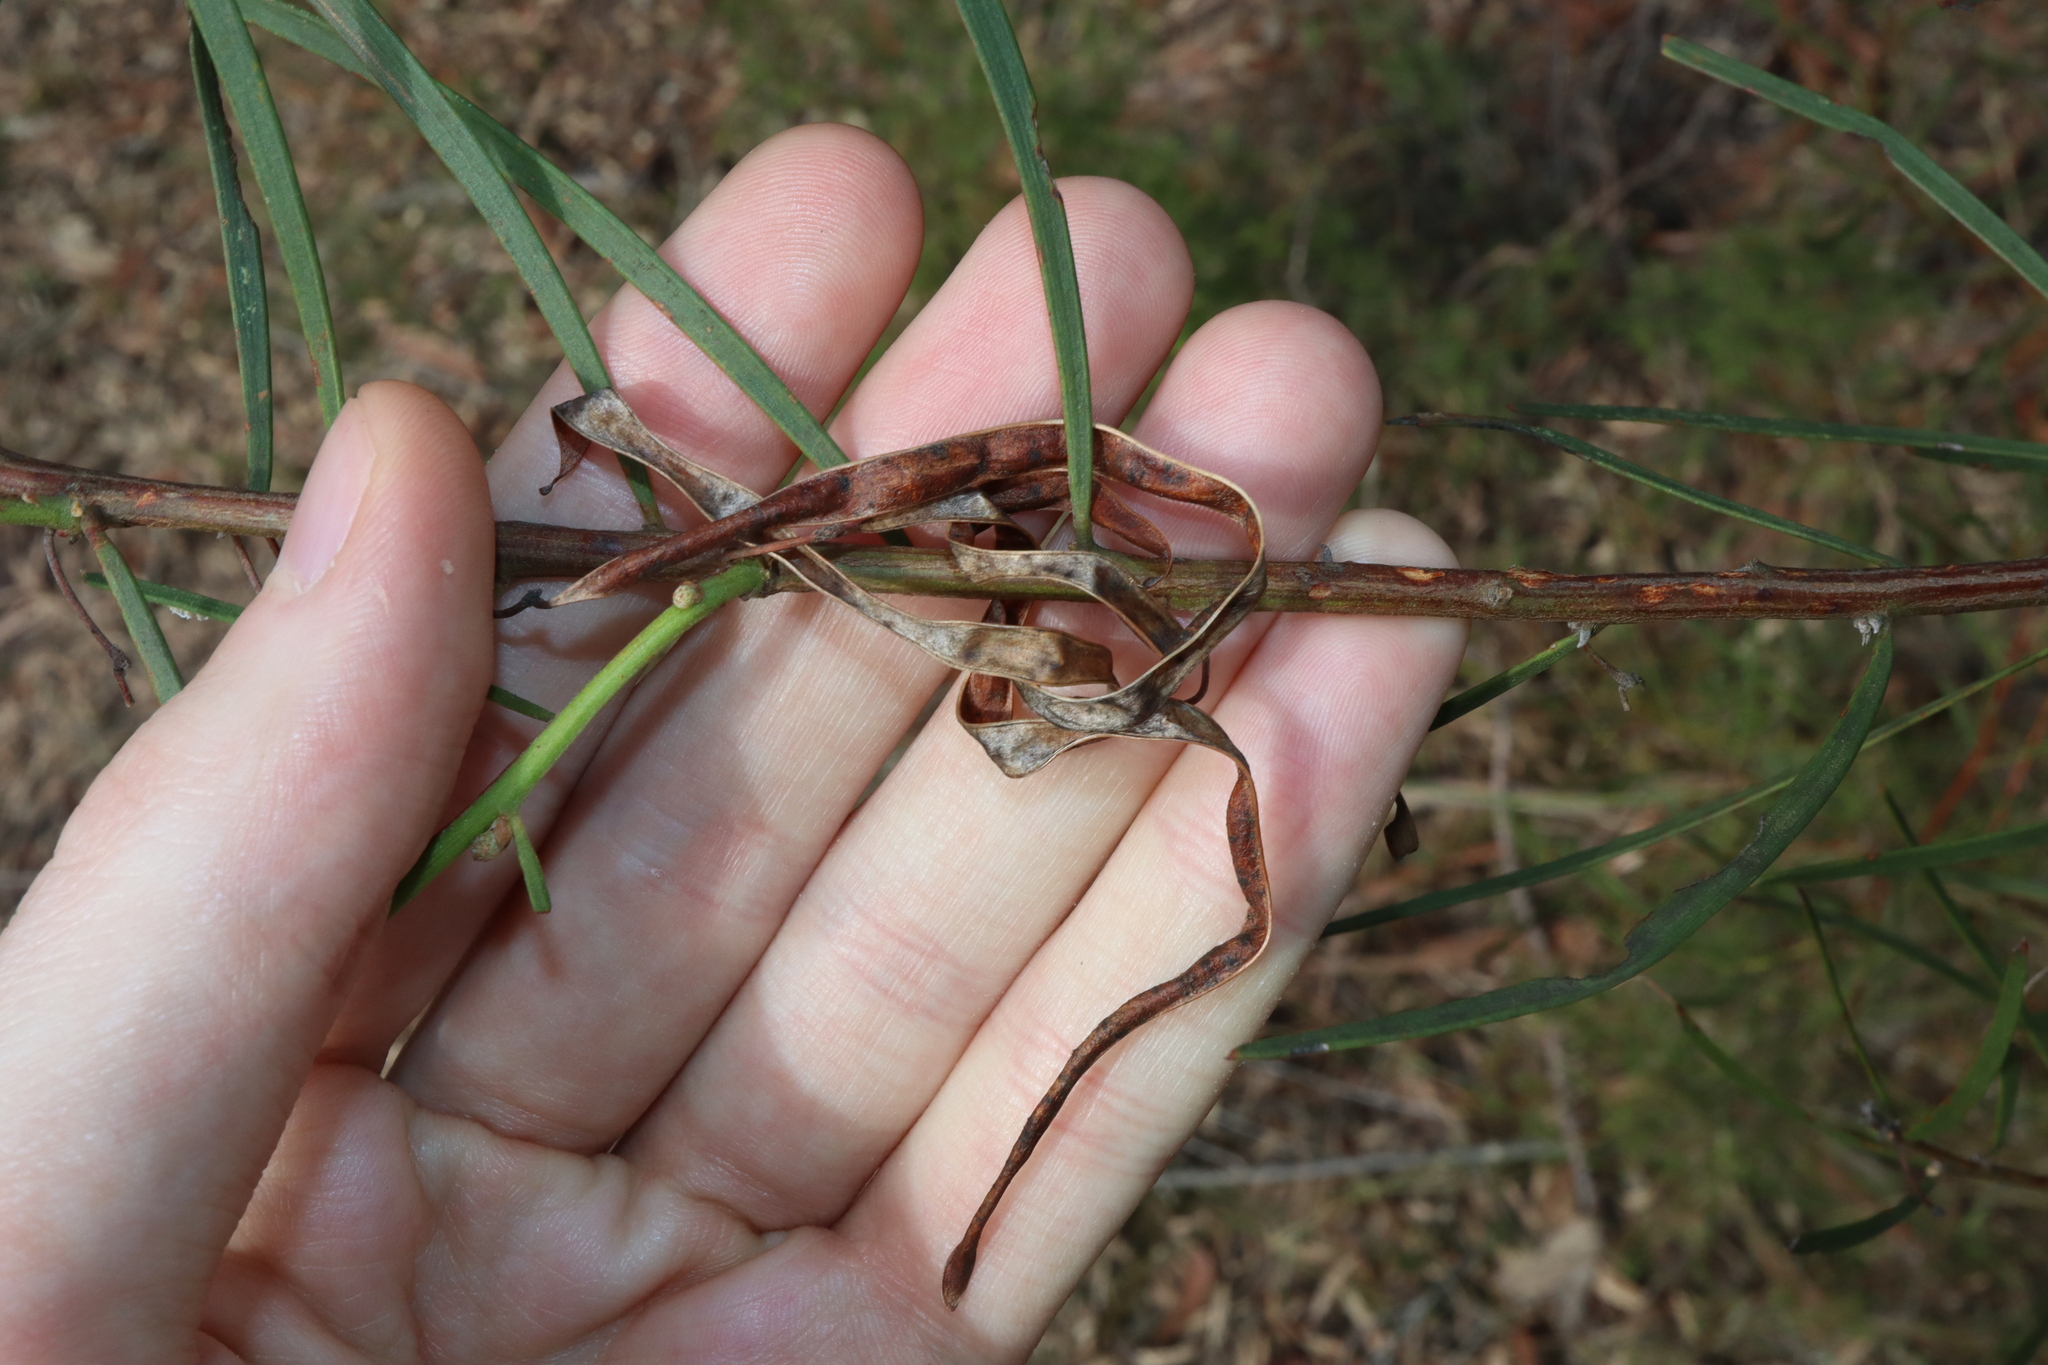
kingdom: Plantae
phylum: Tracheophyta
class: Magnoliopsida
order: Fabales
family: Fabaceae
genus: Acacia
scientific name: Acacia elongata
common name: Swamp wattle
